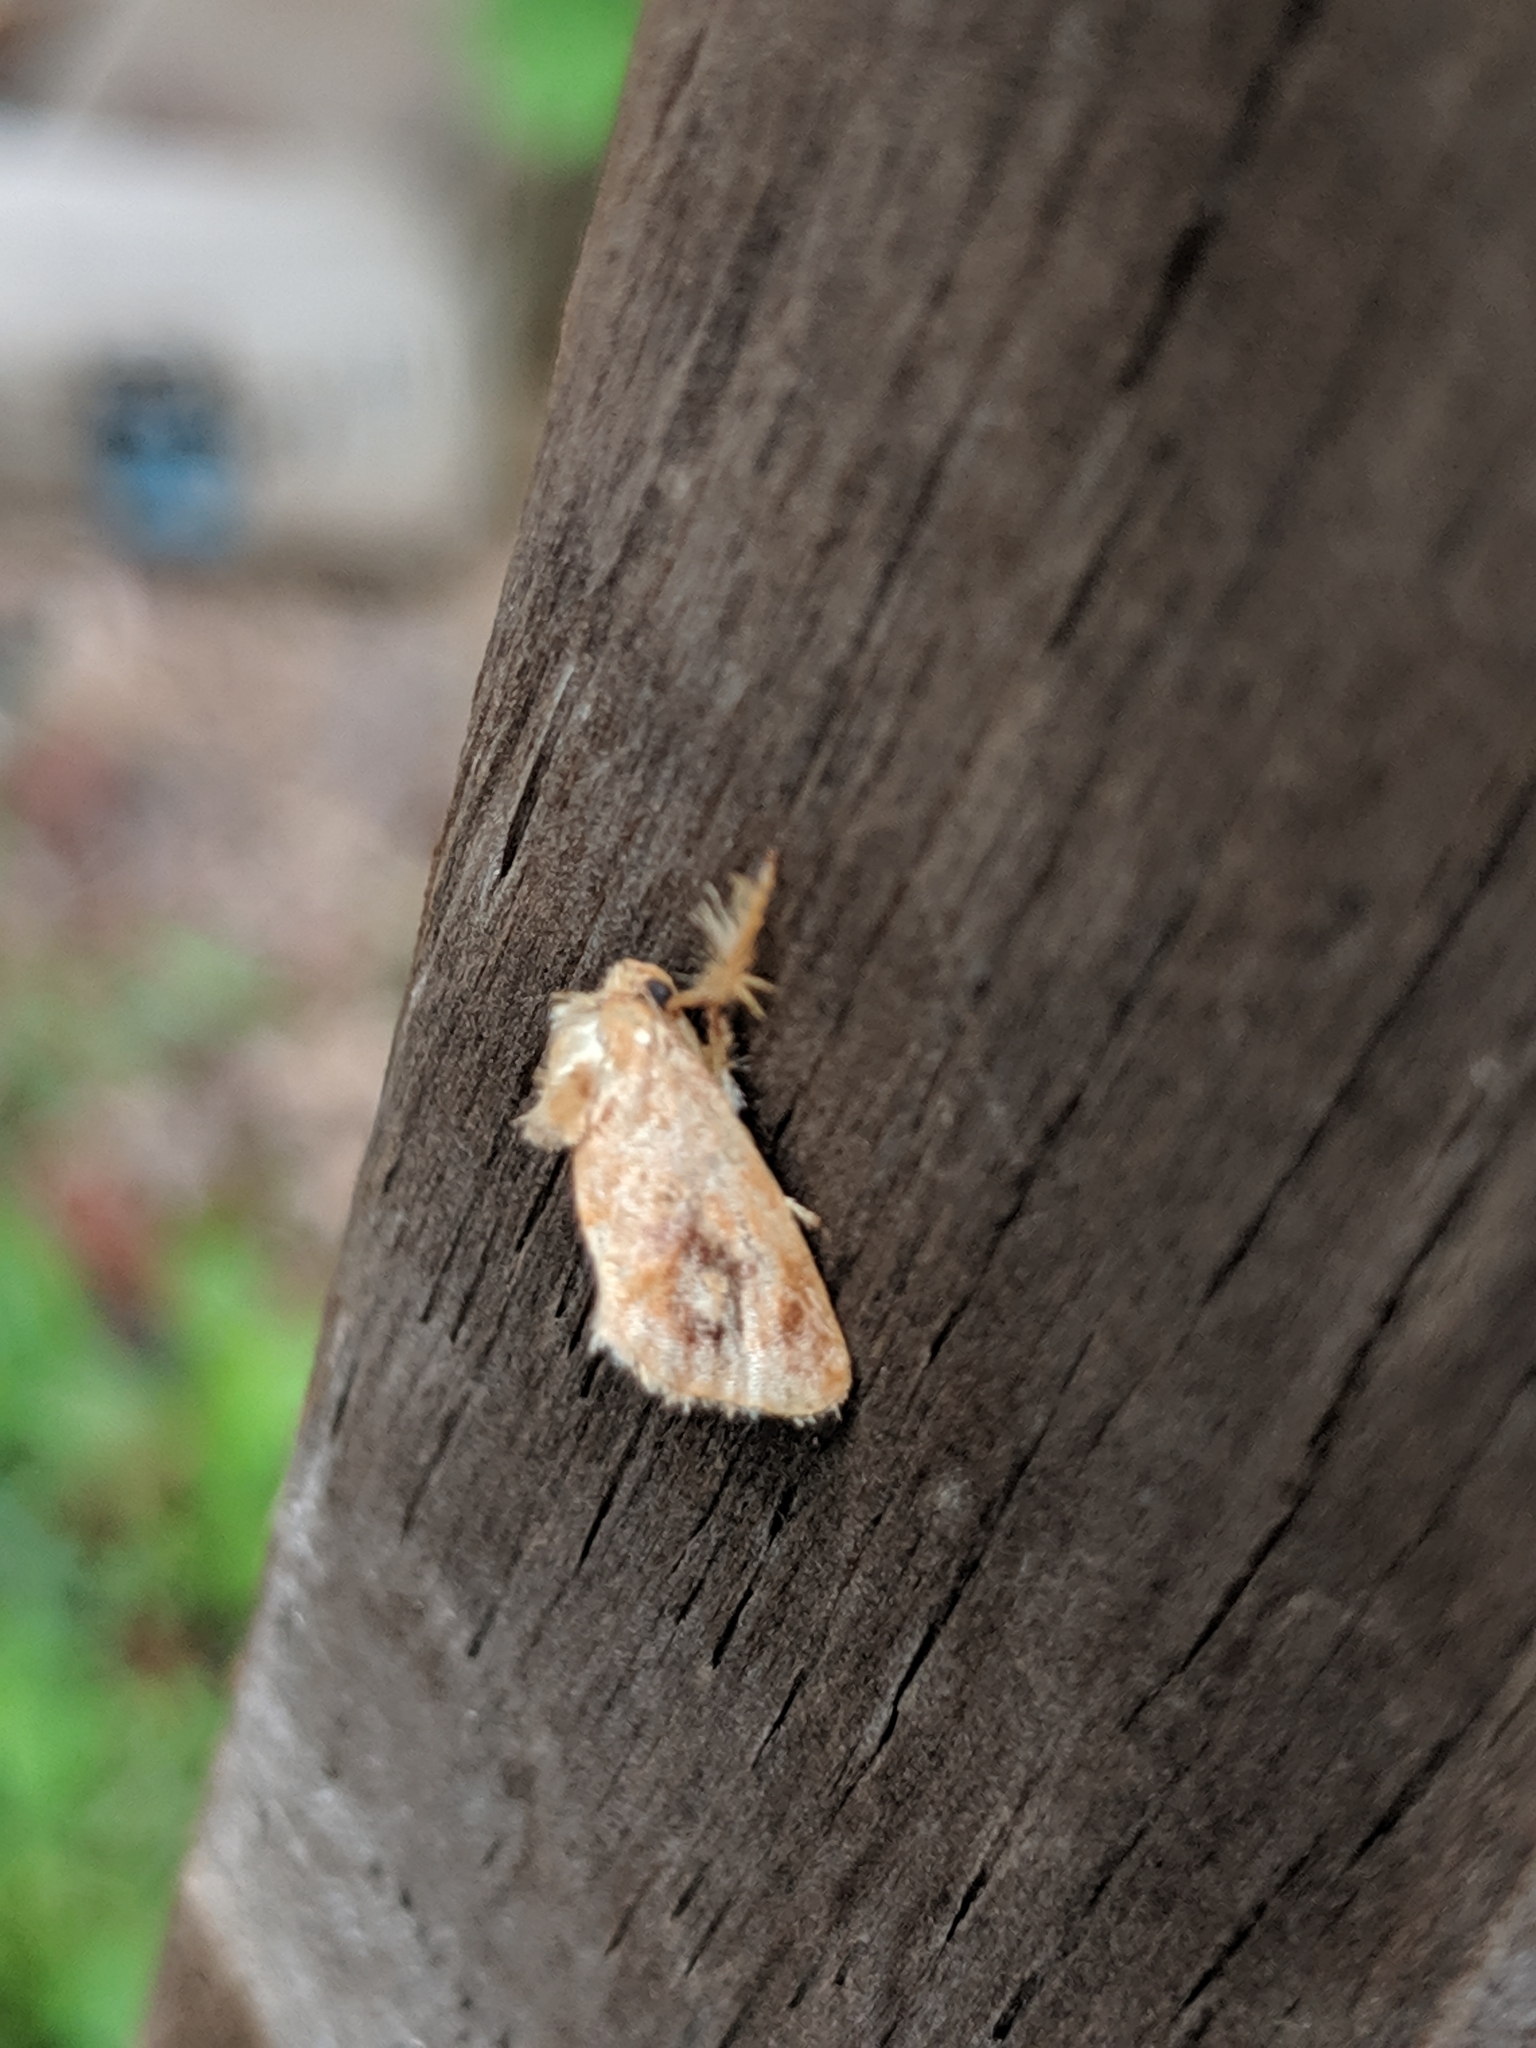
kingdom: Animalia
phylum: Arthropoda
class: Insecta
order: Lepidoptera
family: Limacodidae
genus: Isochaetes
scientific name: Isochaetes beutenmuelleri
